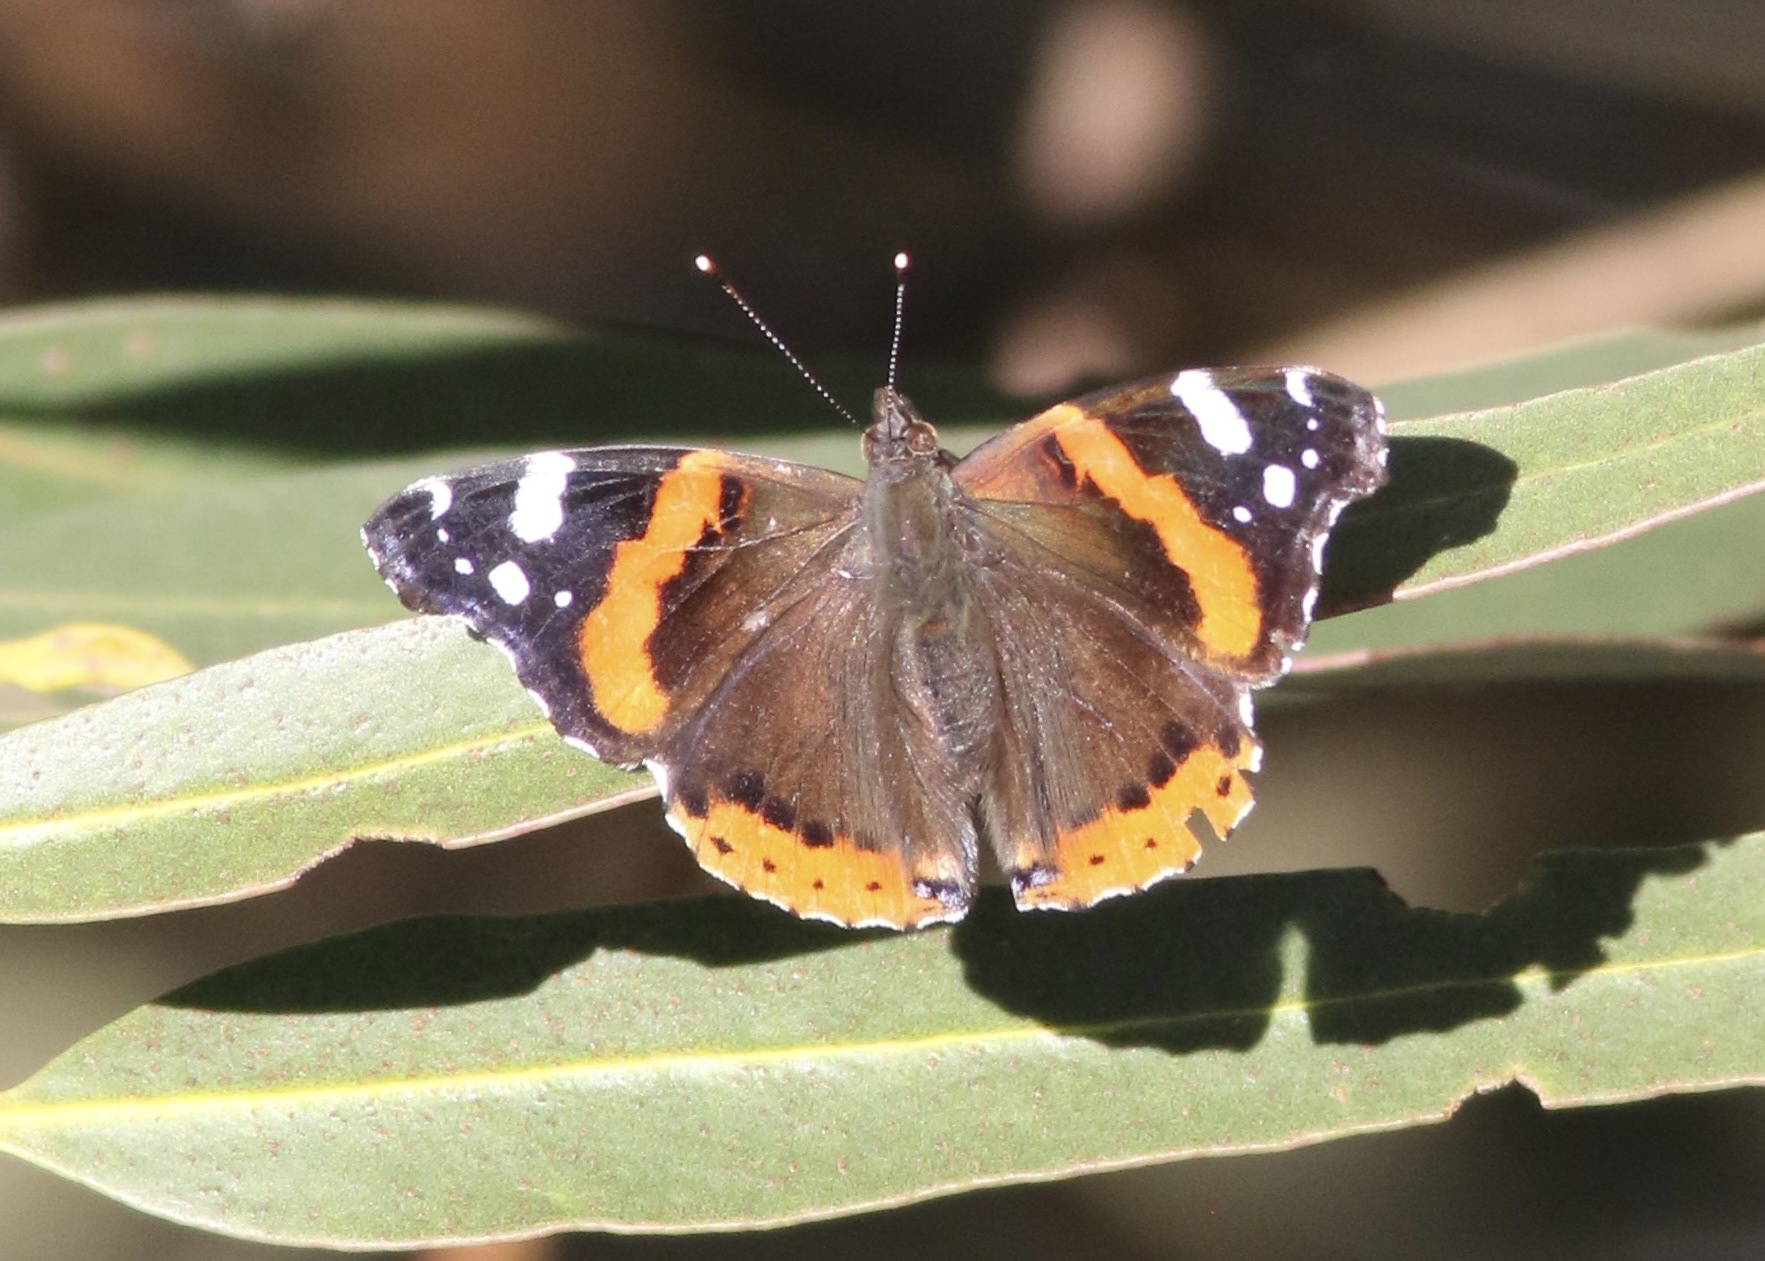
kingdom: Animalia
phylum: Arthropoda
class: Insecta
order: Lepidoptera
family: Nymphalidae
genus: Vanessa
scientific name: Vanessa atalanta
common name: Red admiral
